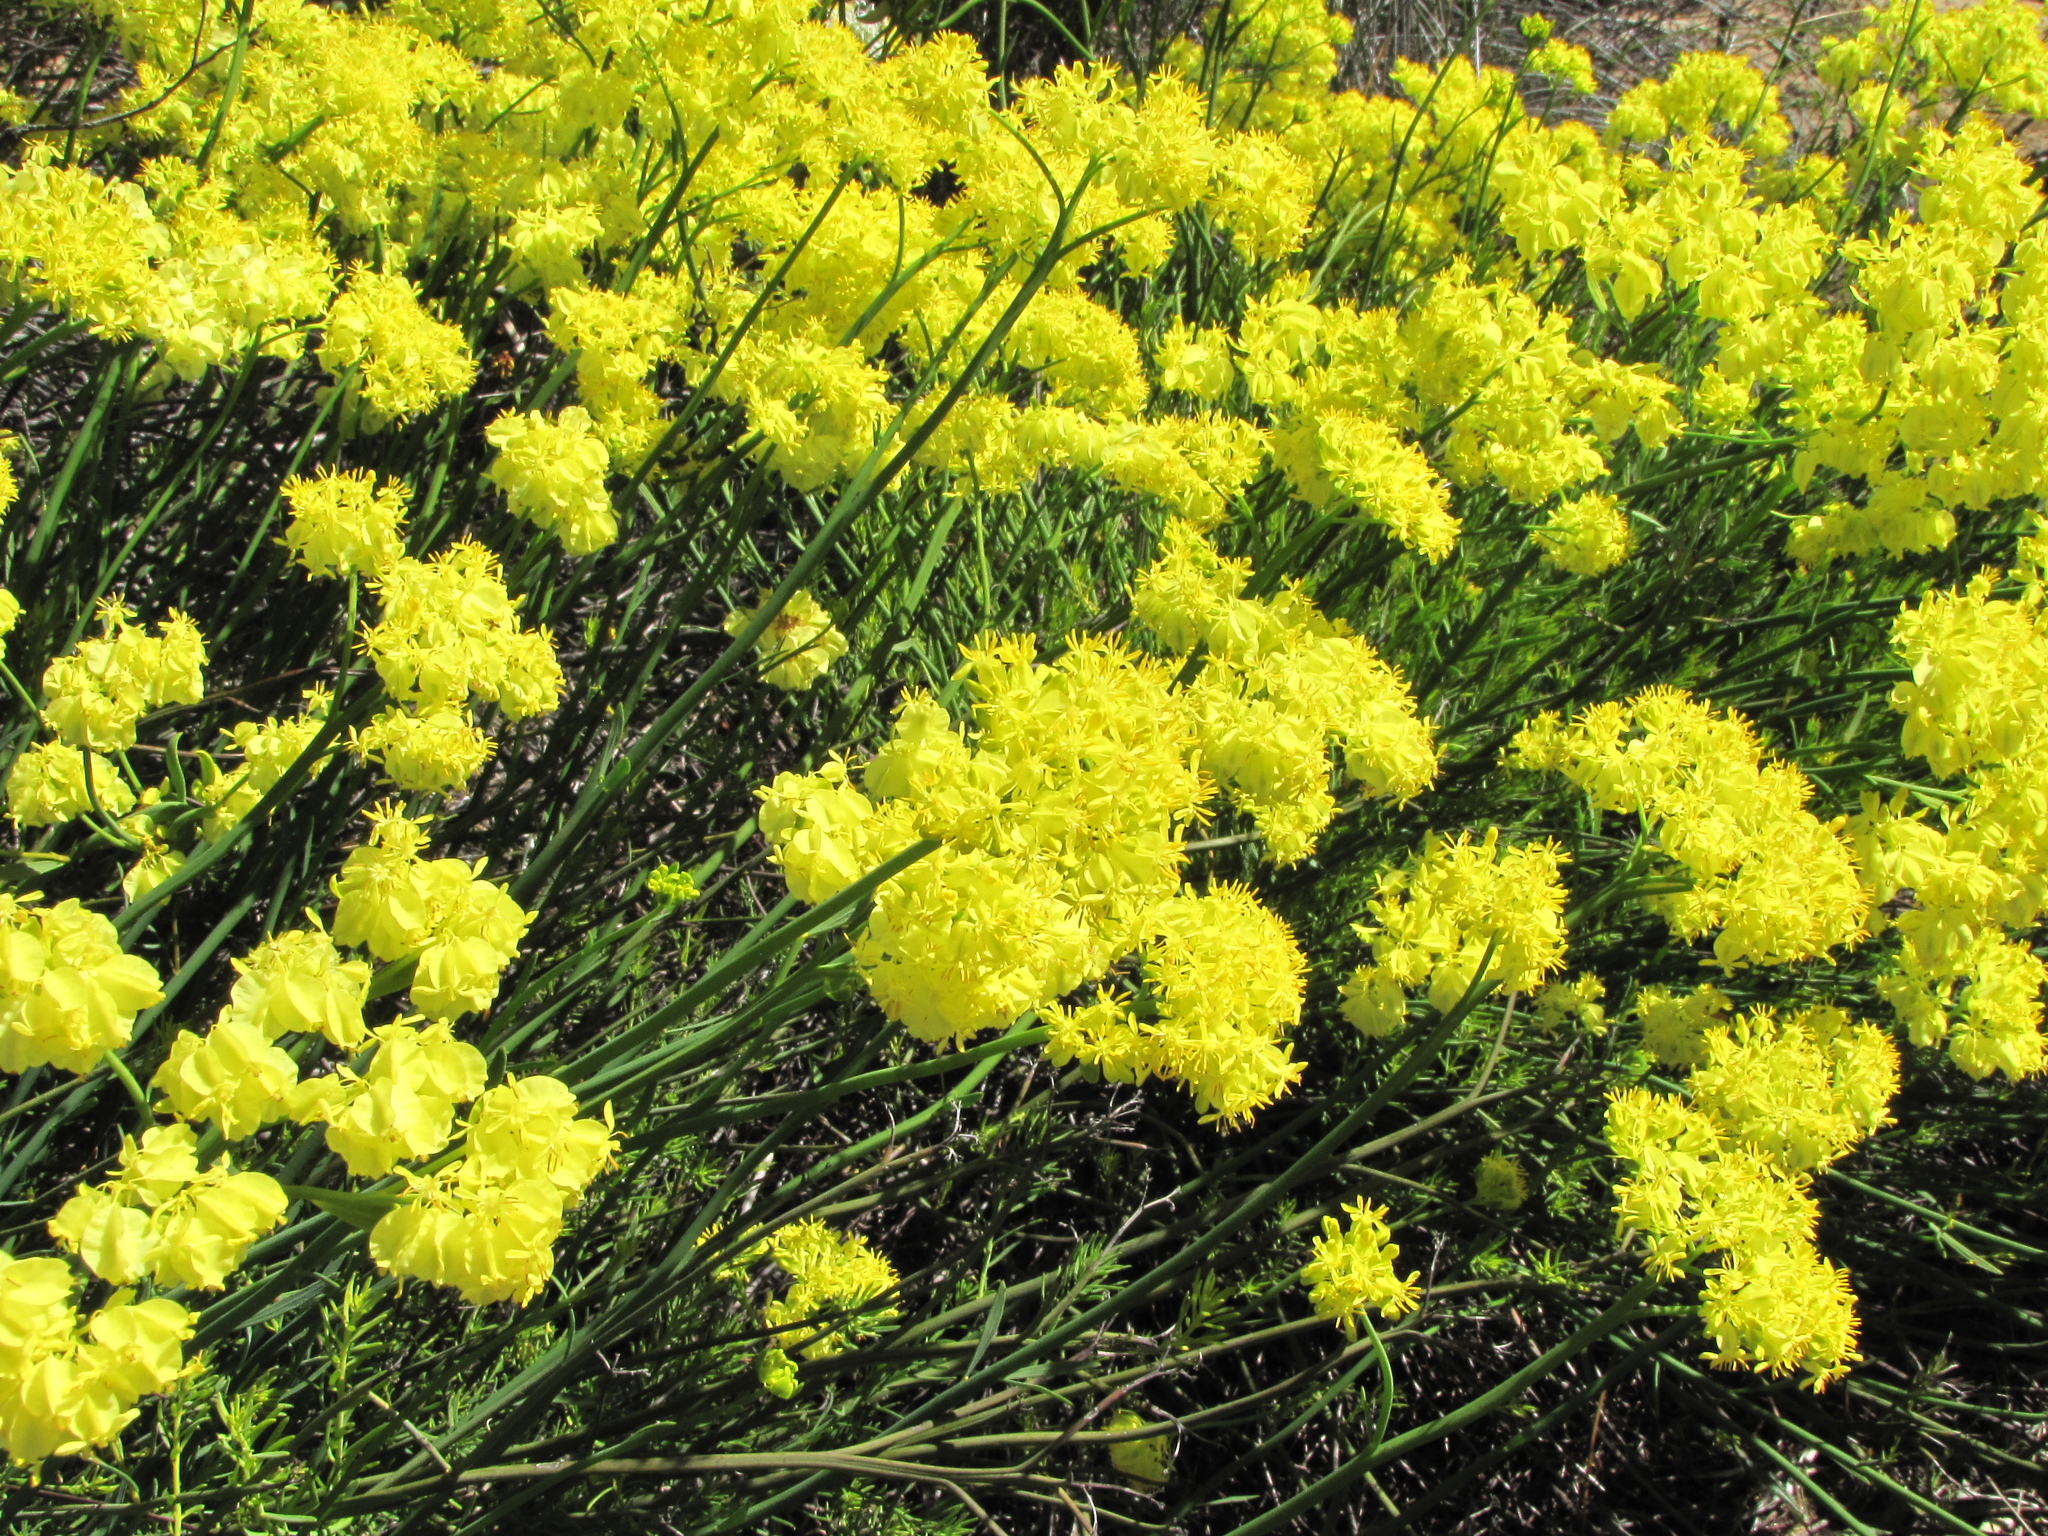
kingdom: Plantae
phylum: Tracheophyta
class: Magnoliopsida
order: Saxifragales
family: Haloragaceae
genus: Glischrocaryon
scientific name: Glischrocaryon aureum
